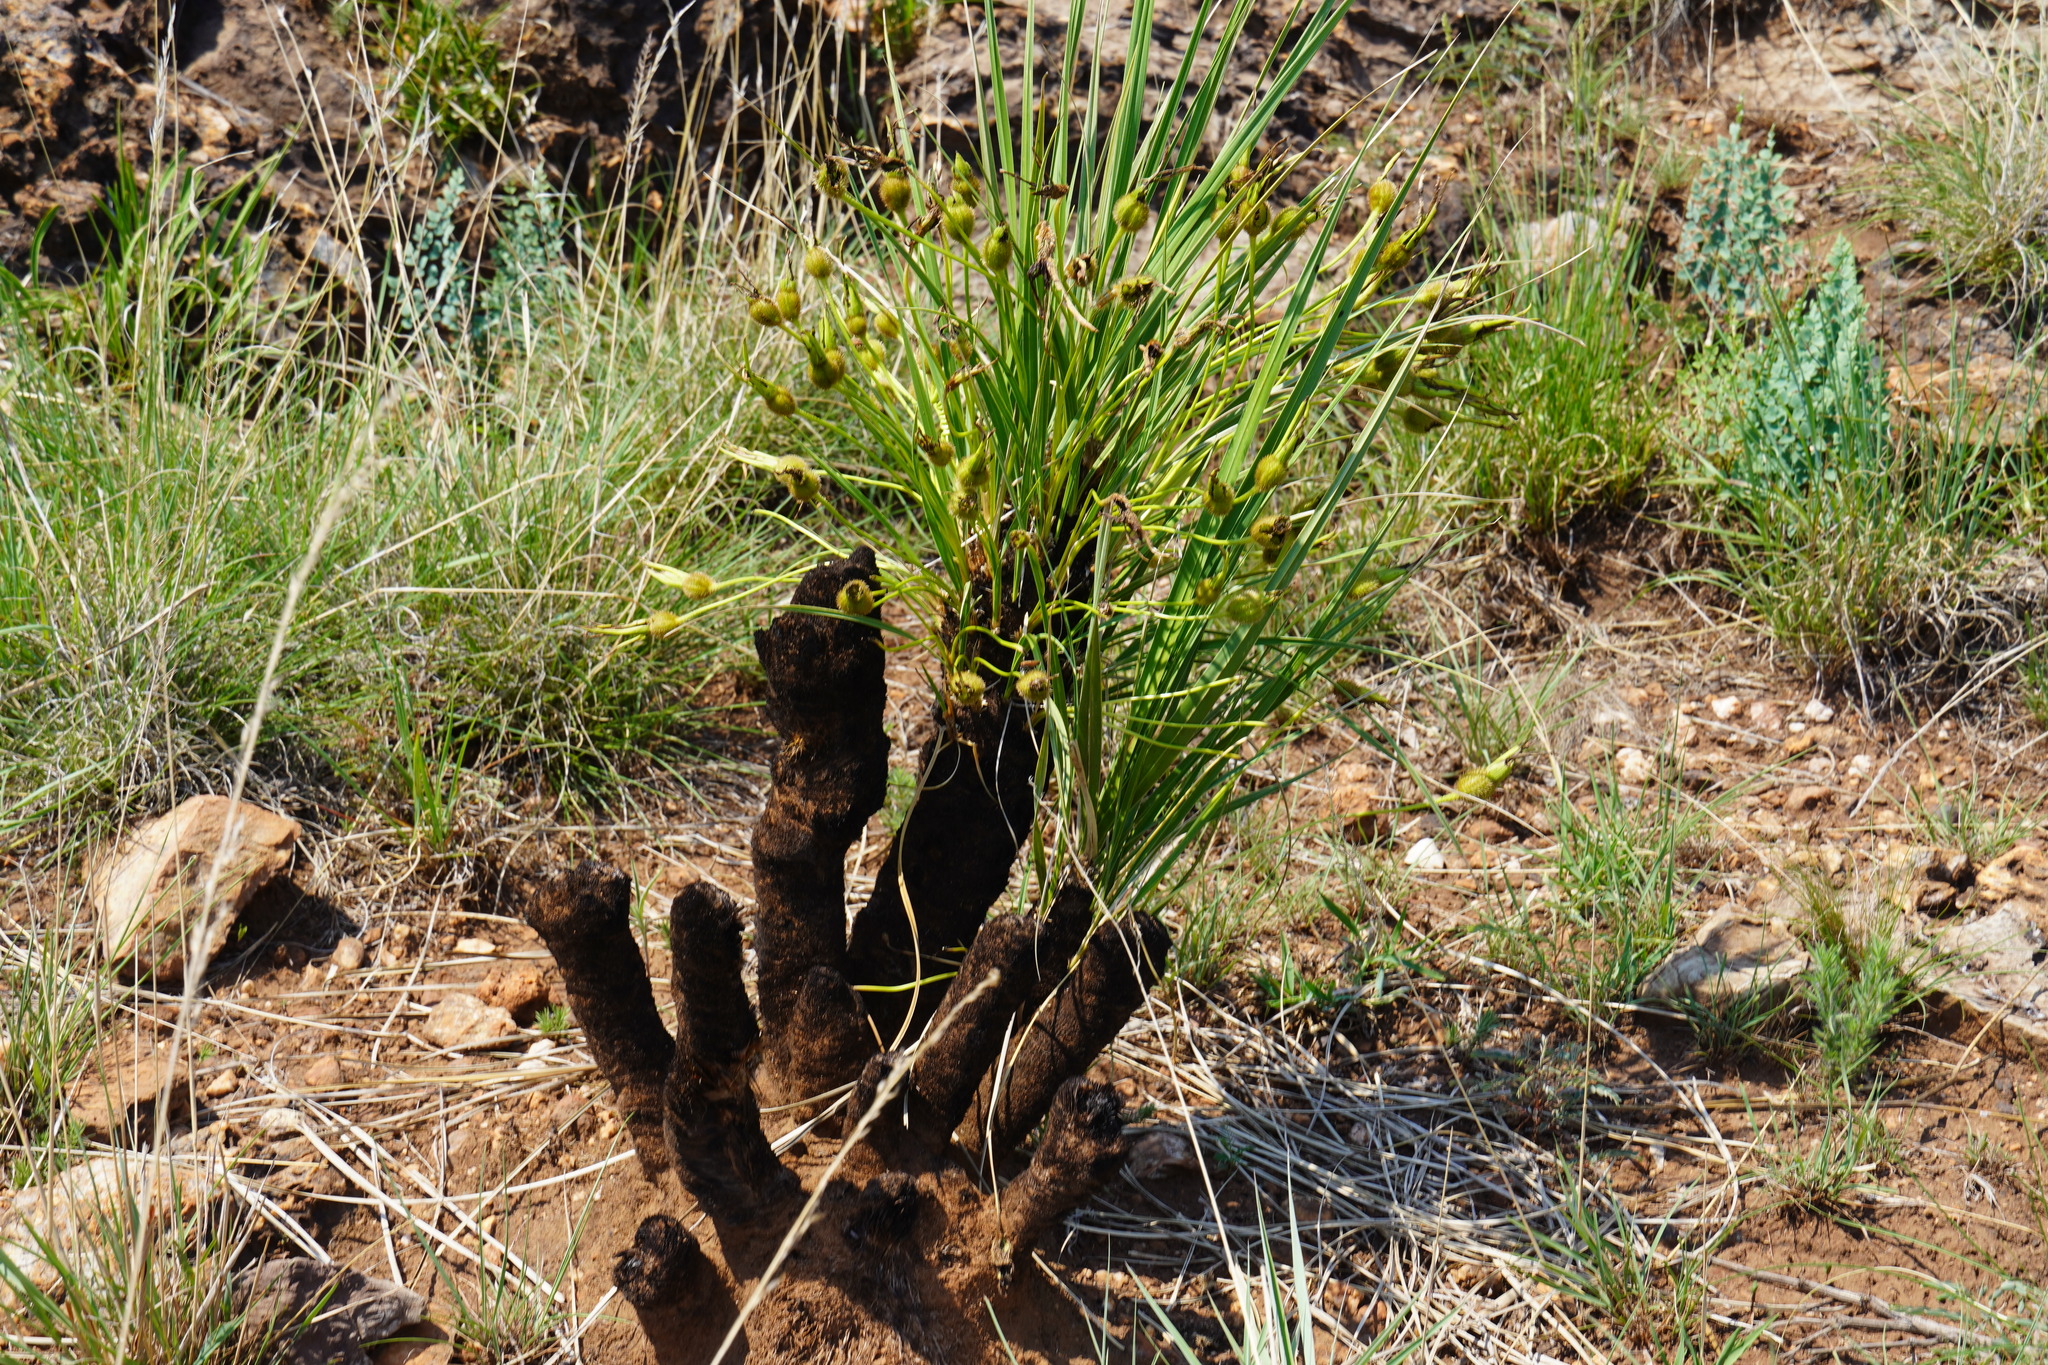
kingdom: Plantae
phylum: Tracheophyta
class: Liliopsida
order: Pandanales
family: Velloziaceae
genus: Xerophyta
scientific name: Xerophyta retinervis
